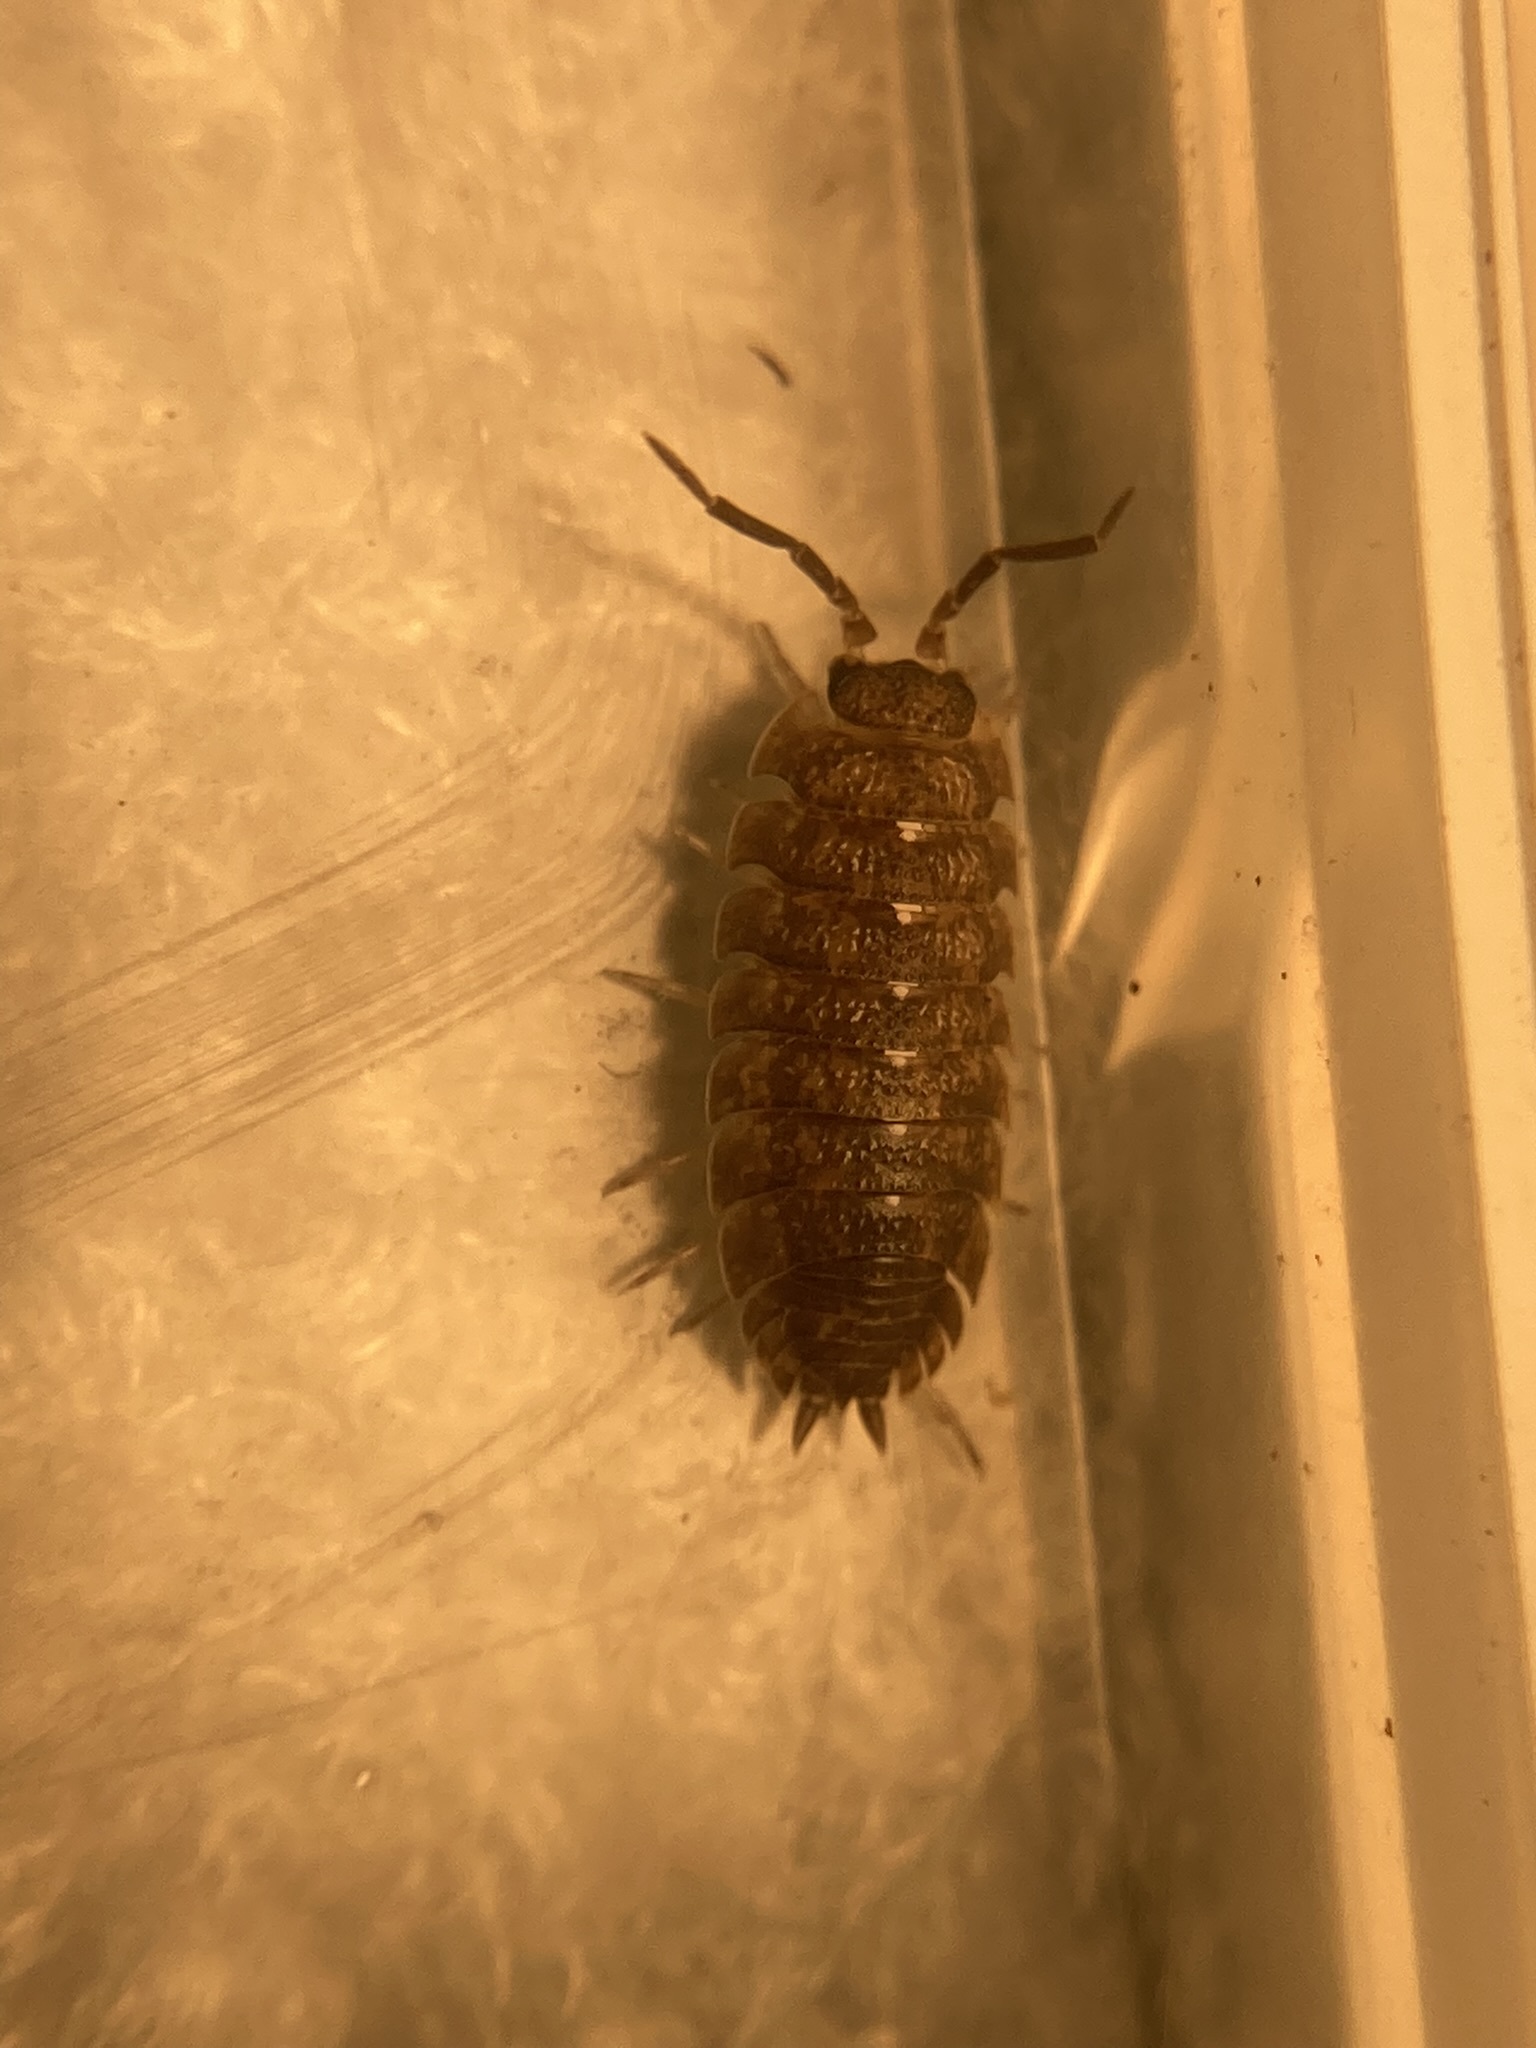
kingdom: Animalia
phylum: Arthropoda
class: Malacostraca
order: Isopoda
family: Porcellionidae
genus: Porcellio
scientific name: Porcellio scaber
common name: Common rough woodlouse
